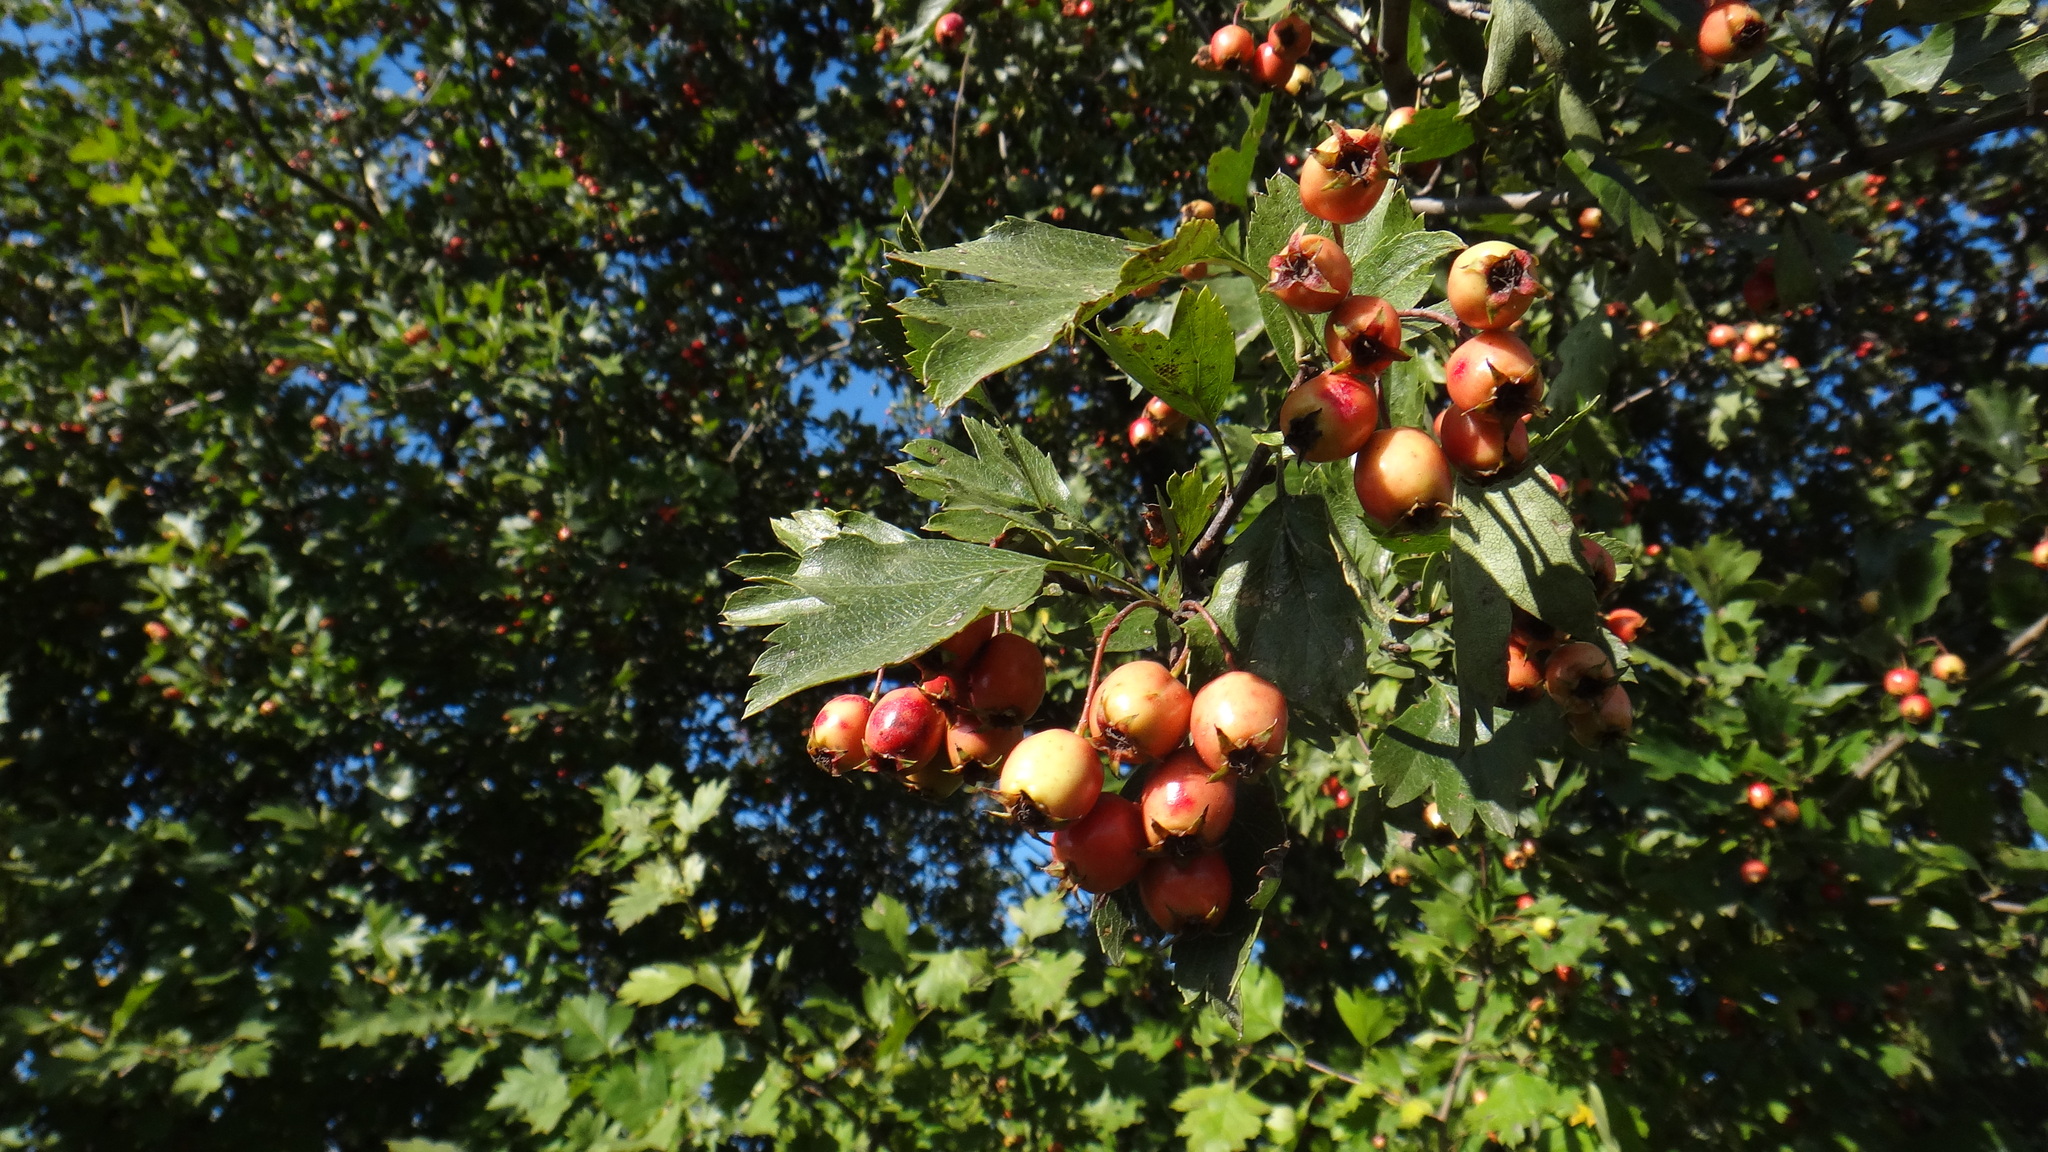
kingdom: Plantae
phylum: Tracheophyta
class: Magnoliopsida
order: Rosales
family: Rosaceae
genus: Crataegus
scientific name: Crataegus monogyna
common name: Hawthorn
